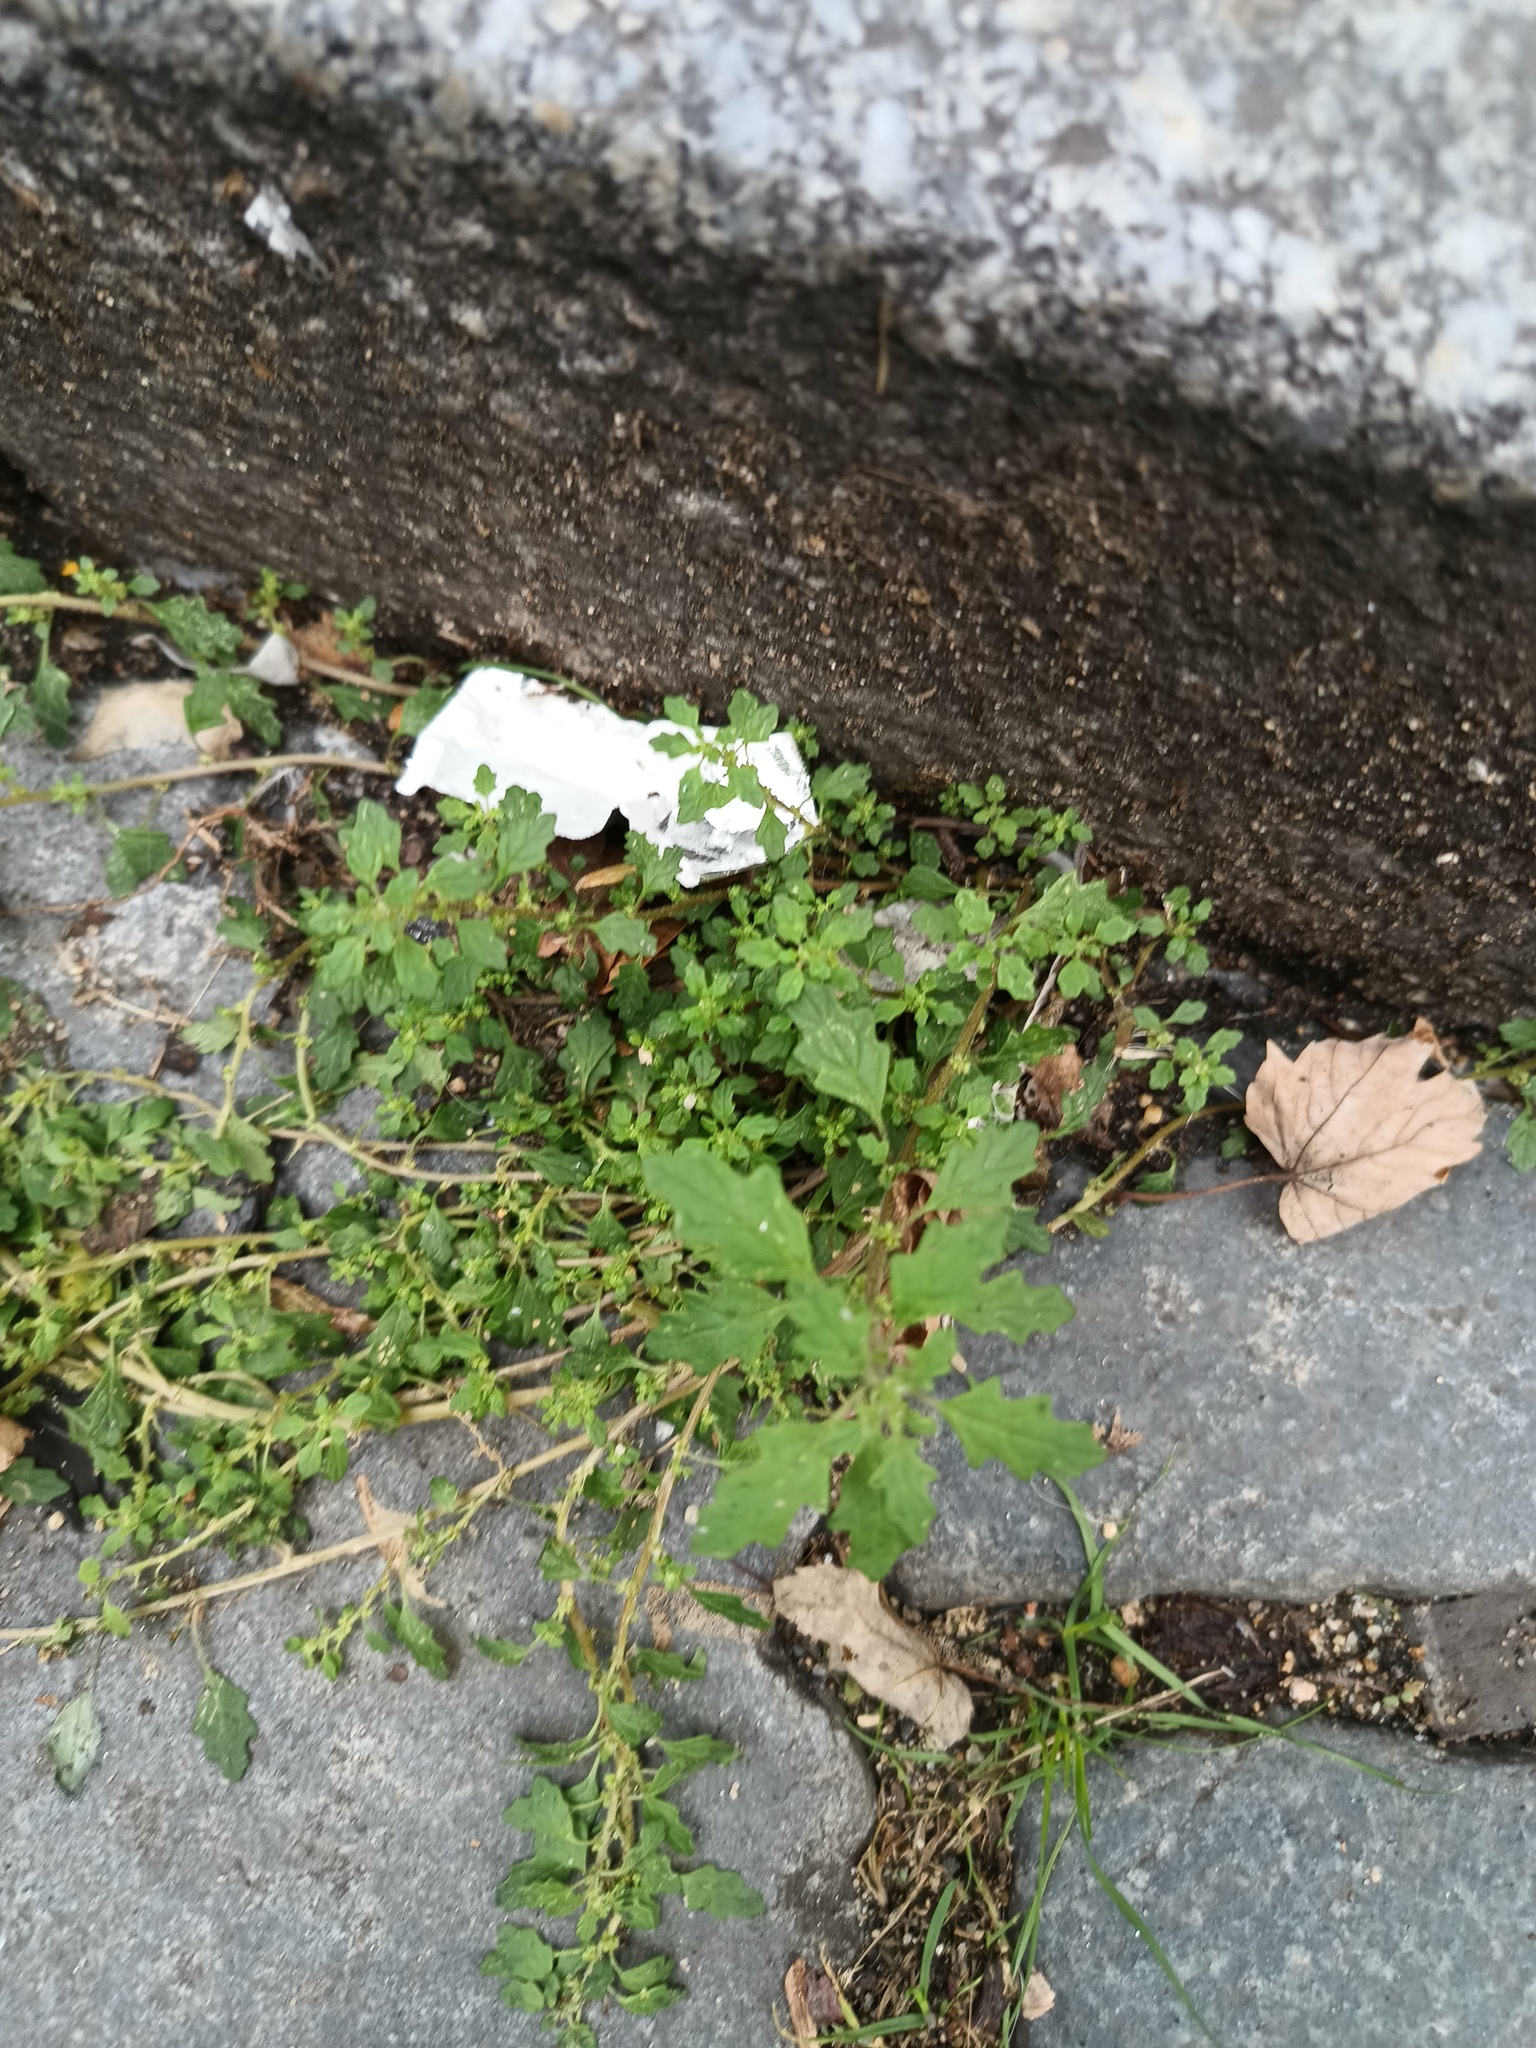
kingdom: Plantae
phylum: Tracheophyta
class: Magnoliopsida
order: Caryophyllales
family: Amaranthaceae
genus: Dysphania
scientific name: Dysphania pumilio
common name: Clammy goosefoot
